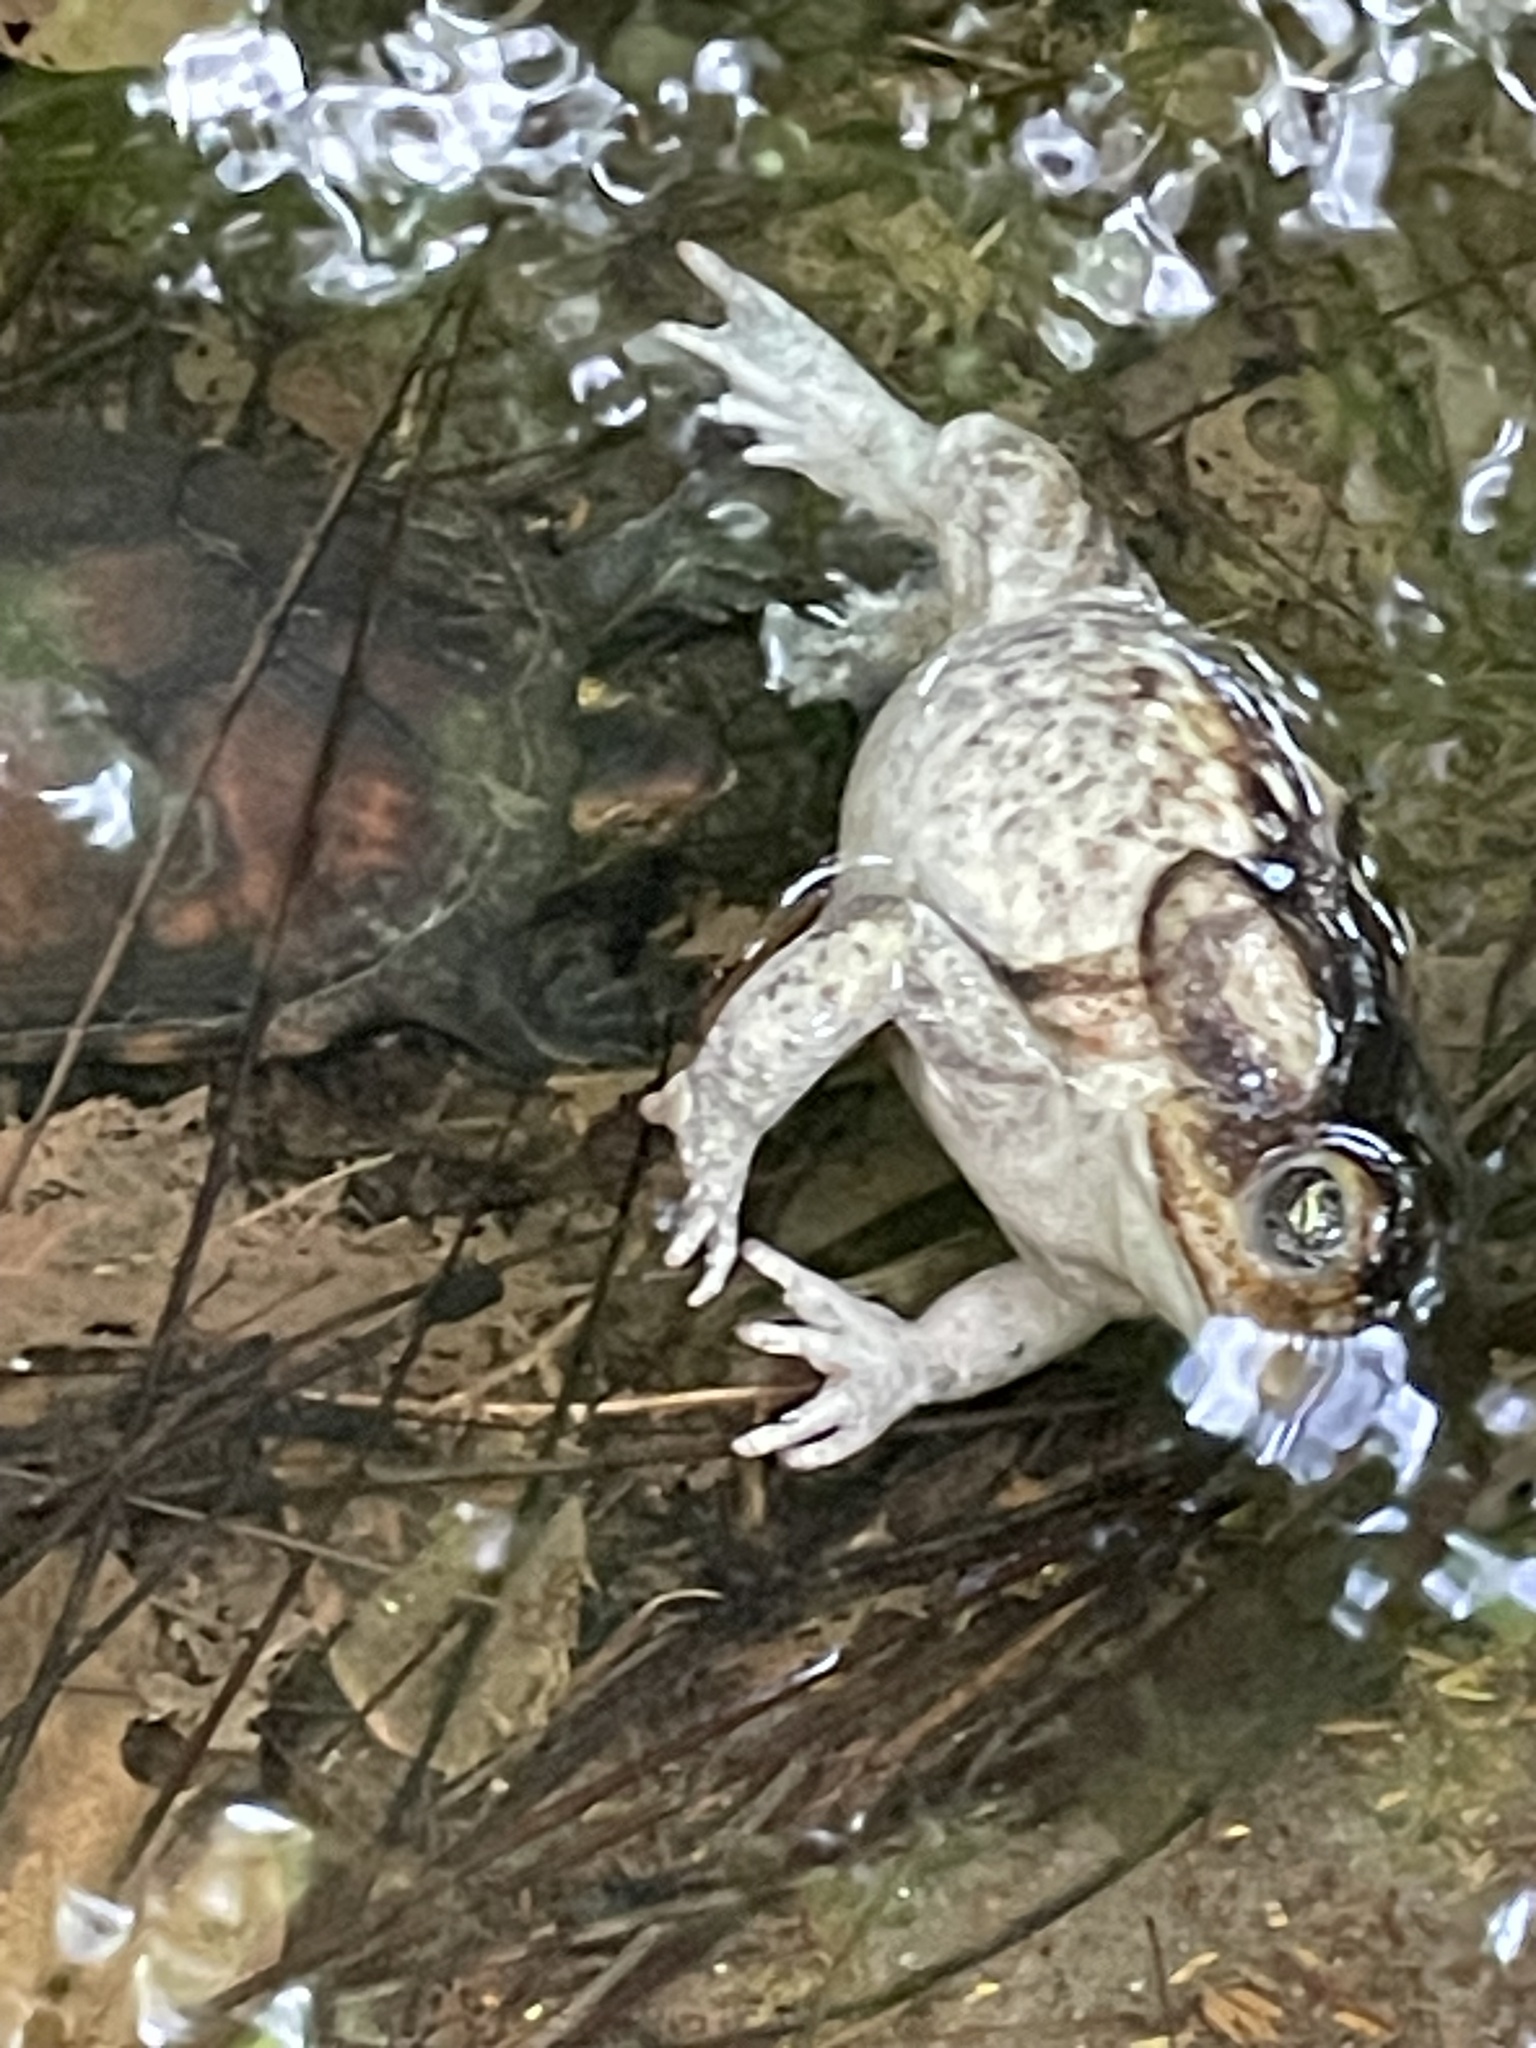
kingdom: Animalia
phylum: Chordata
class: Amphibia
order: Anura
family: Bufonidae
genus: Rhinella
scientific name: Rhinella horribilis
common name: Mesoamerican cane toad
